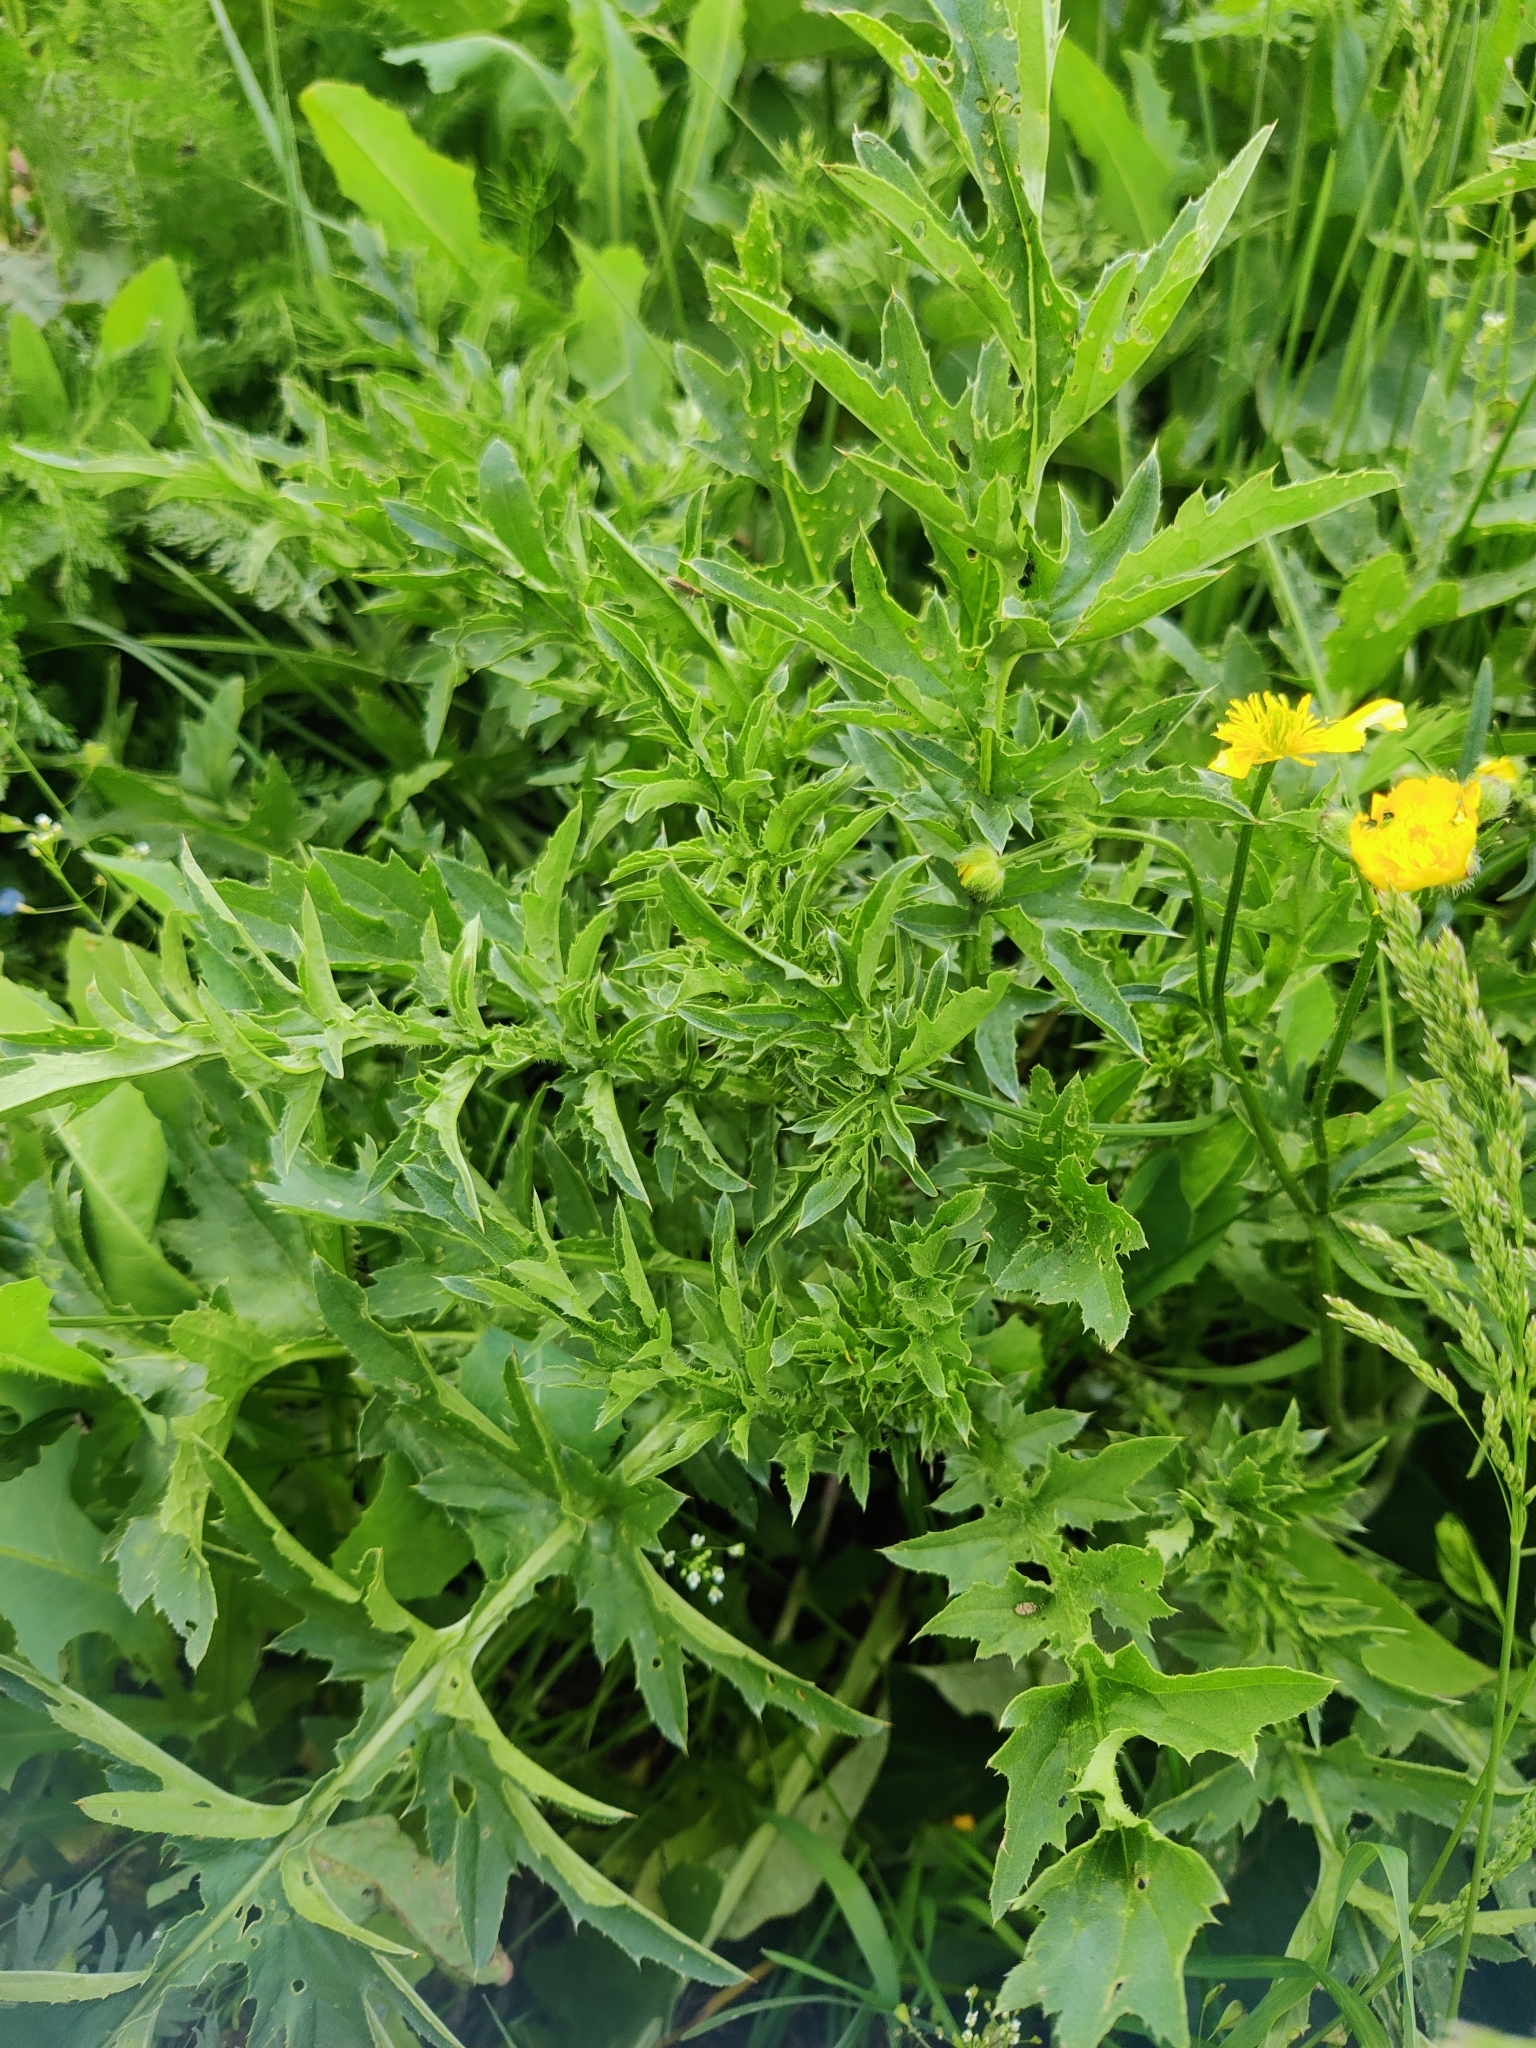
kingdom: Plantae
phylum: Tracheophyta
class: Magnoliopsida
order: Asterales
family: Asteraceae
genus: Carduus
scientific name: Carduus acanthoides
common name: Plumeless thistle
